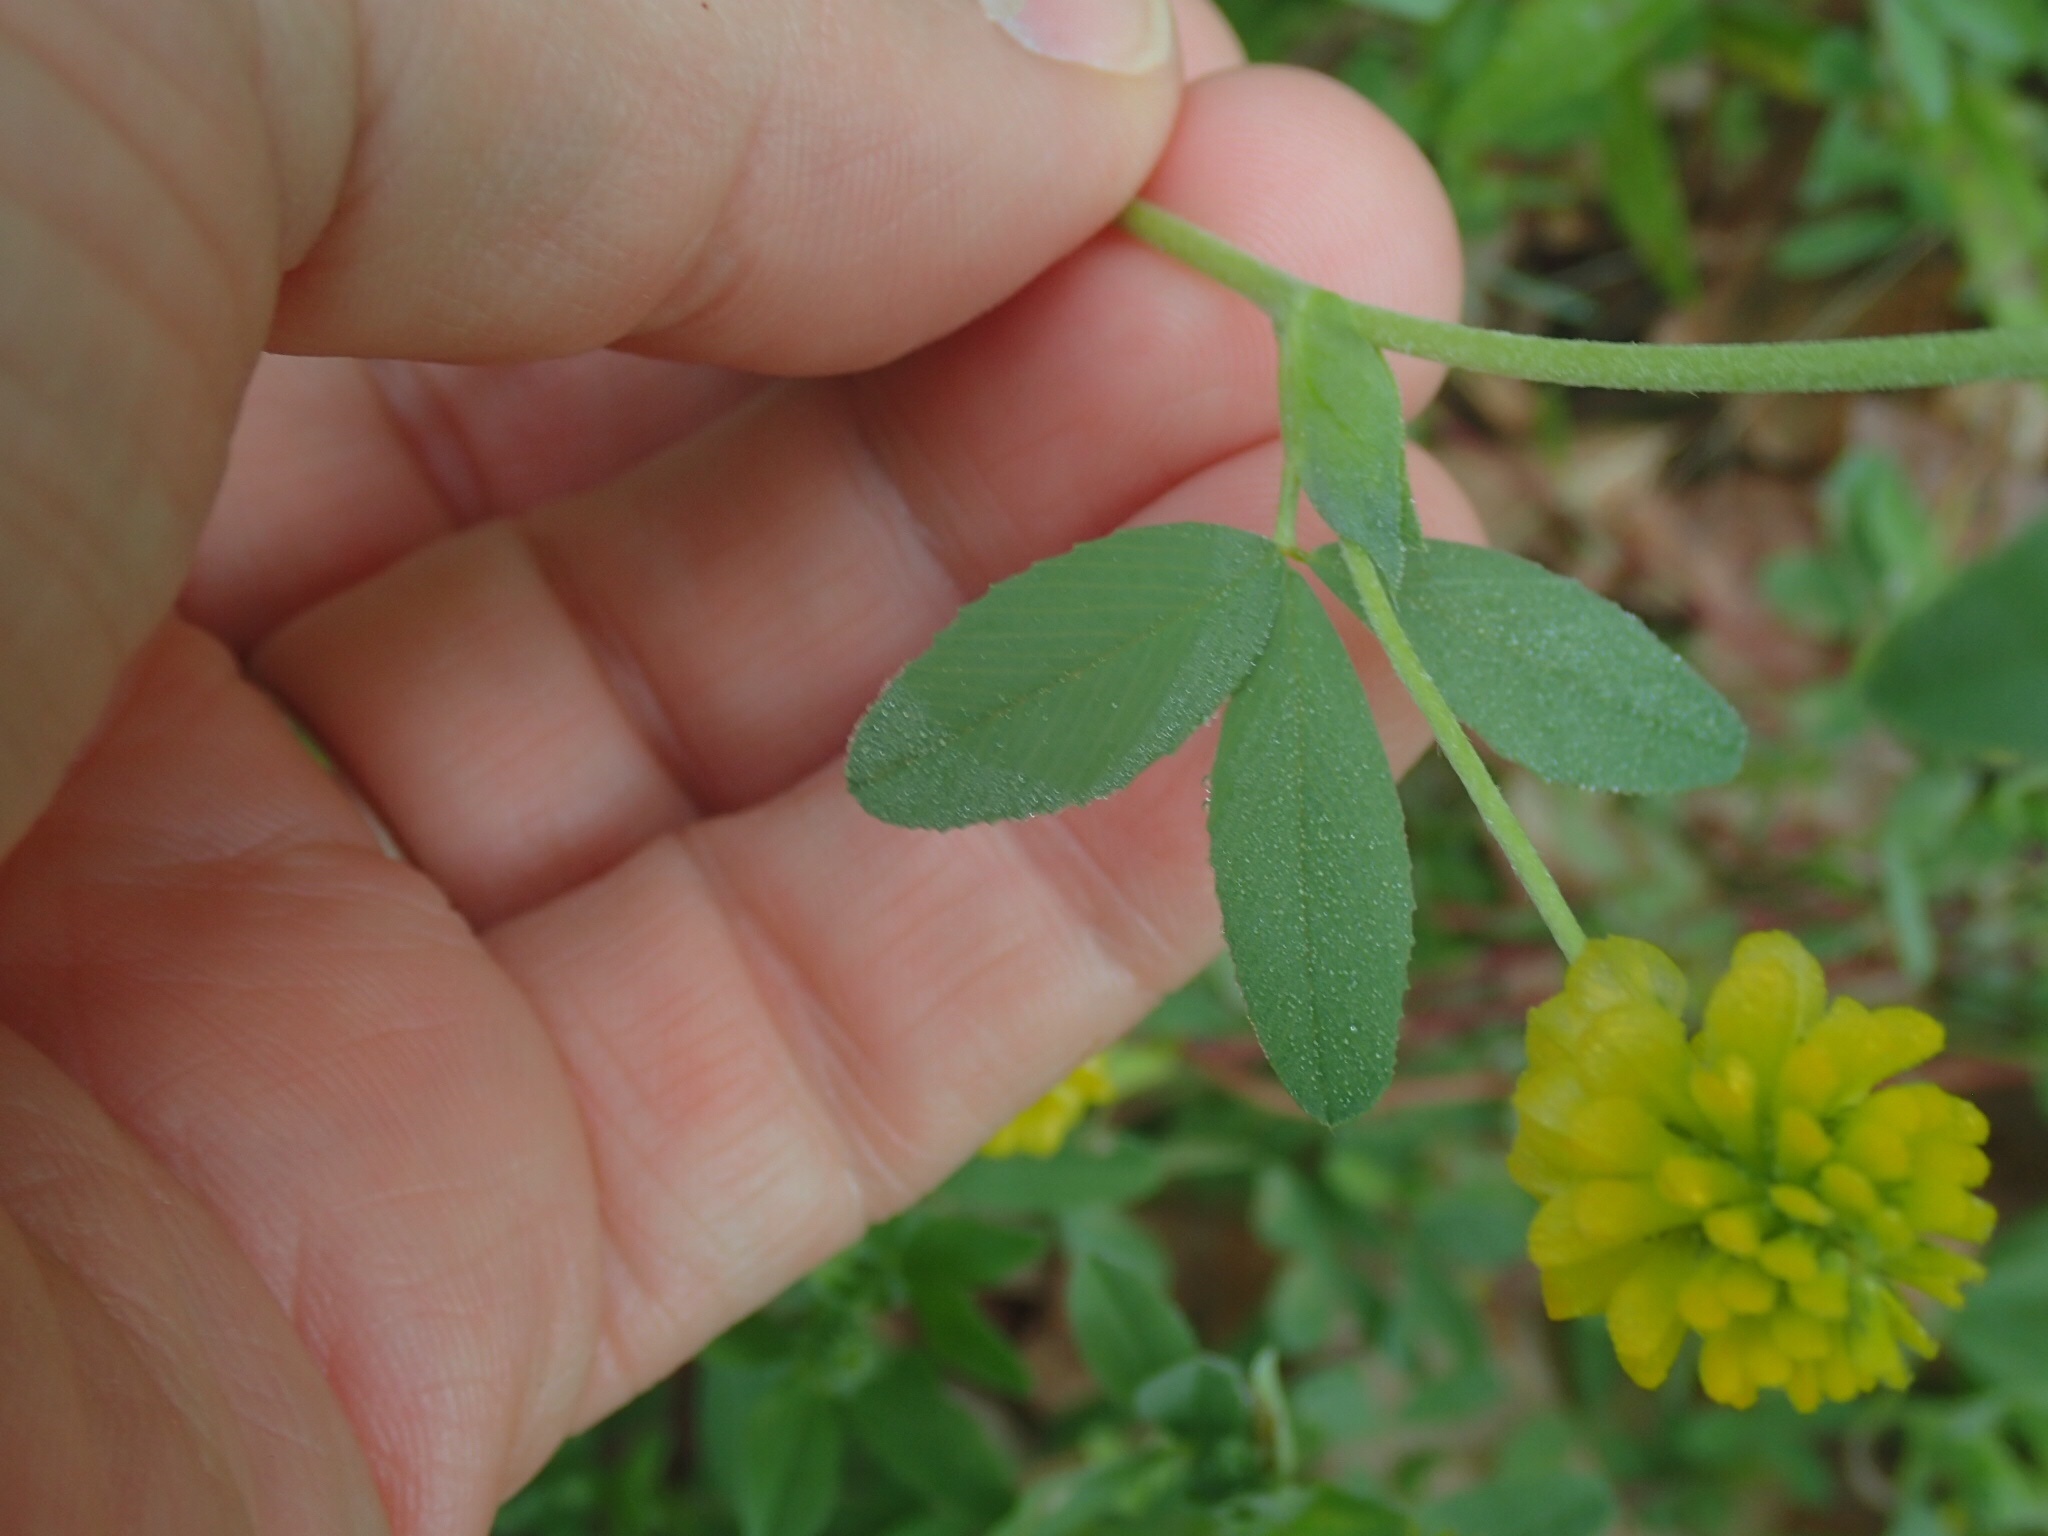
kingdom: Plantae
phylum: Tracheophyta
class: Magnoliopsida
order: Fabales
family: Fabaceae
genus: Trifolium
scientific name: Trifolium aureum
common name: Golden clover
